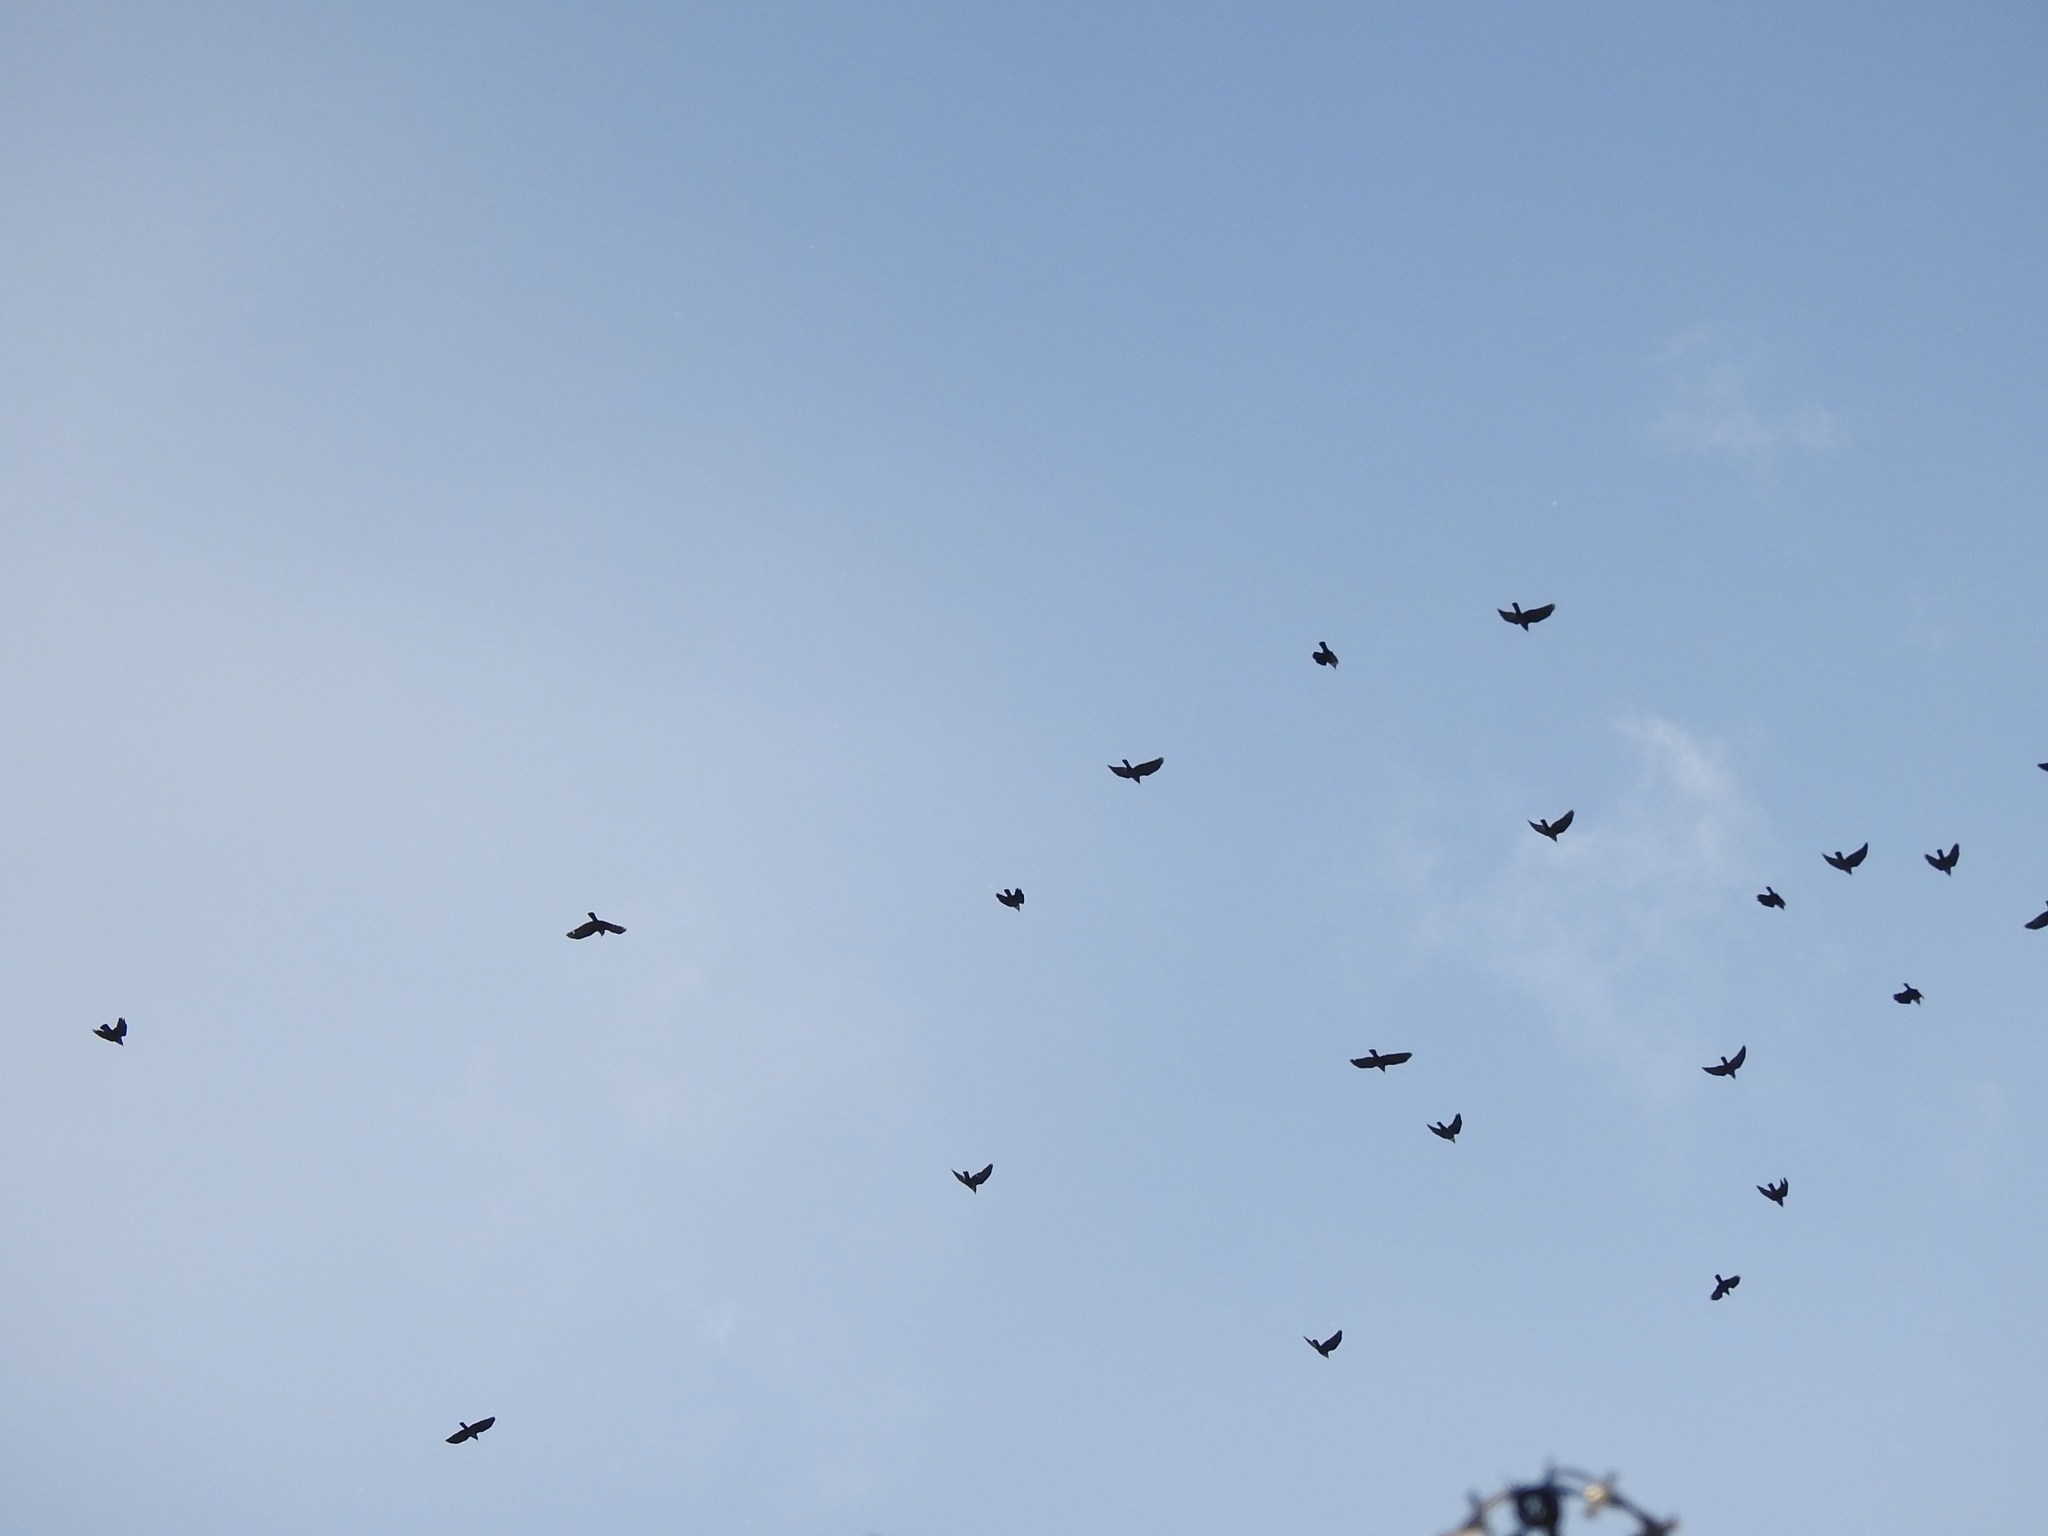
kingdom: Animalia
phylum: Chordata
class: Aves
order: Passeriformes
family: Corvidae
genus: Coloeus
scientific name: Coloeus monedula
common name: Western jackdaw
